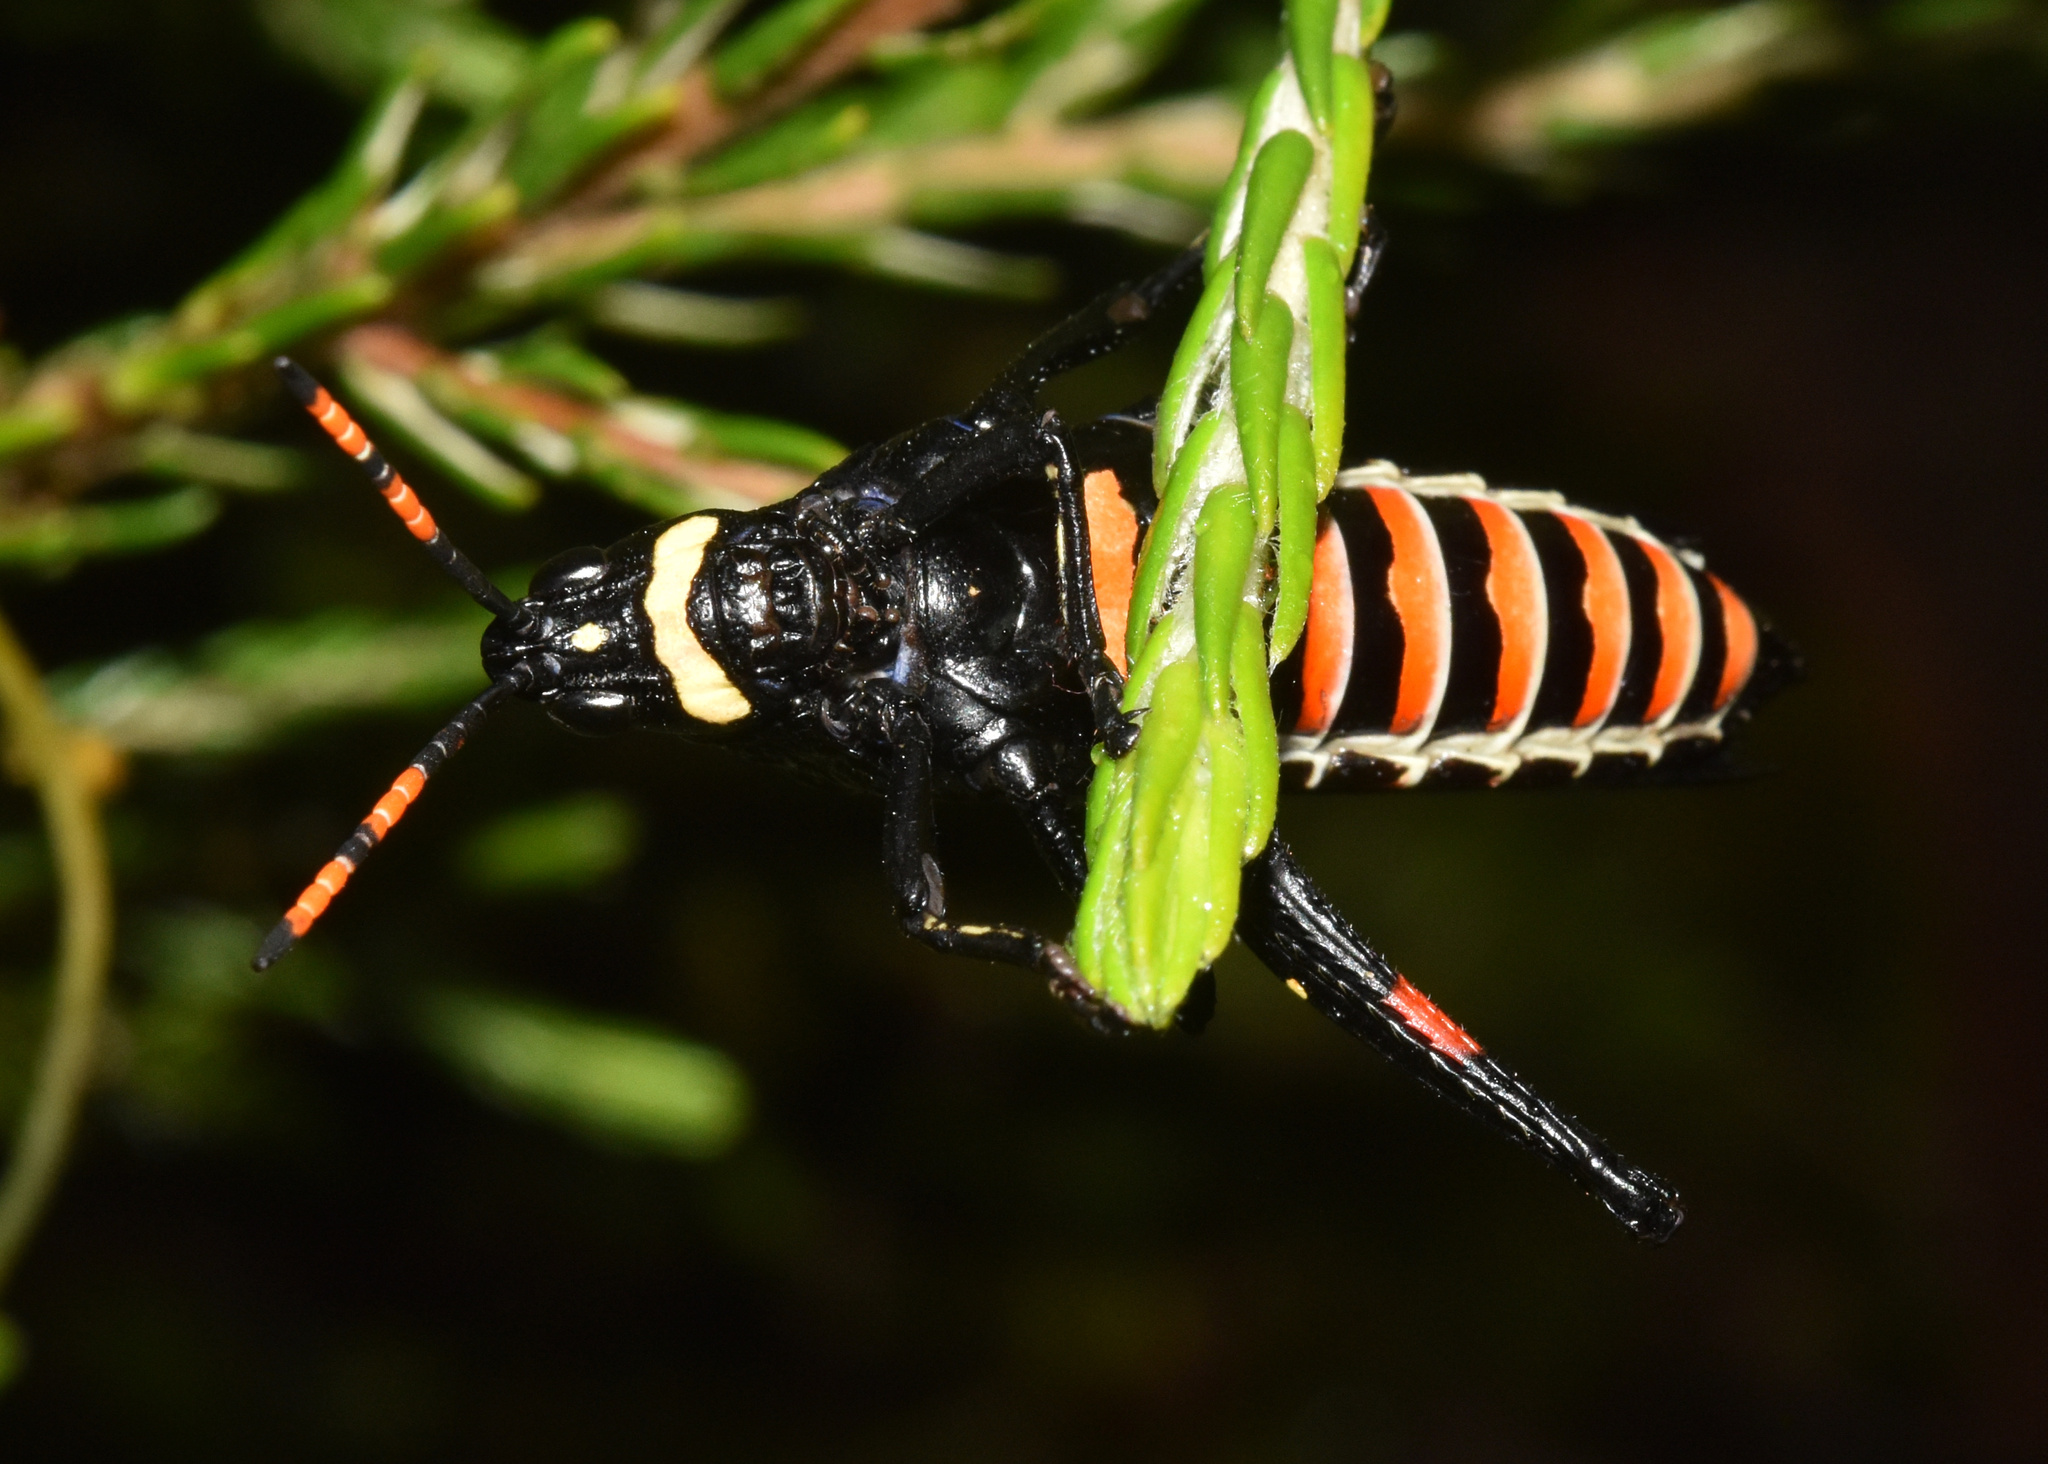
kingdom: Animalia
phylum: Arthropoda
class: Insecta
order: Orthoptera
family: Pyrgomorphidae
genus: Maura
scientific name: Maura rubroornata
